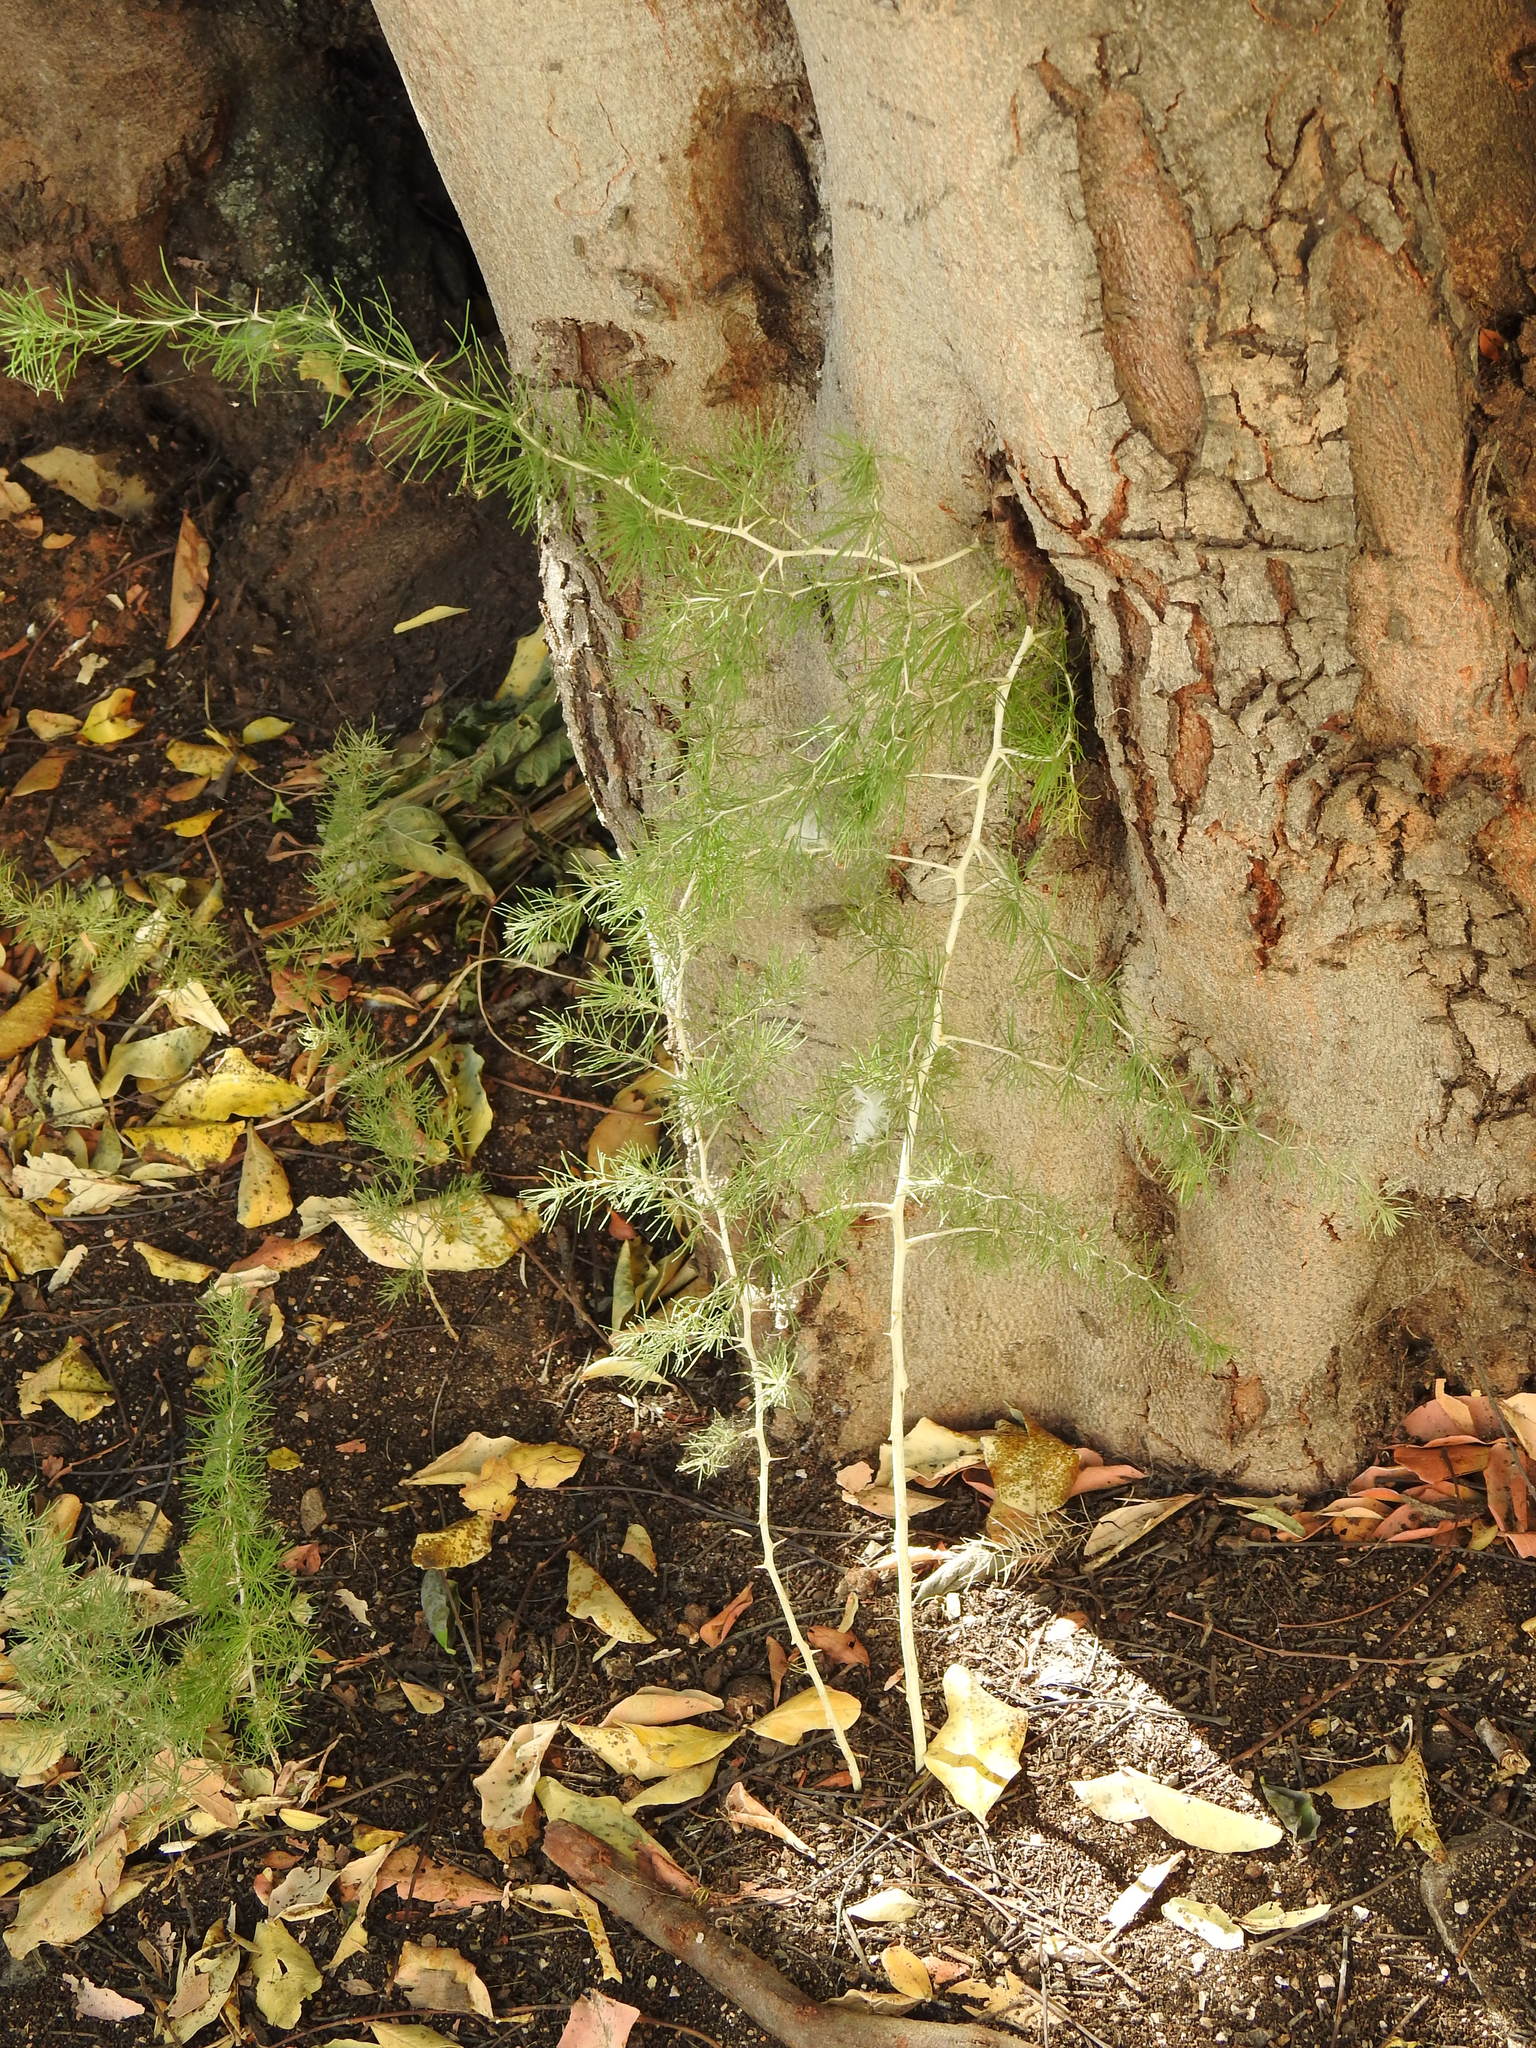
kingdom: Plantae
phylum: Tracheophyta
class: Liliopsida
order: Asparagales
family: Asparagaceae
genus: Asparagus
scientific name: Asparagus albus
